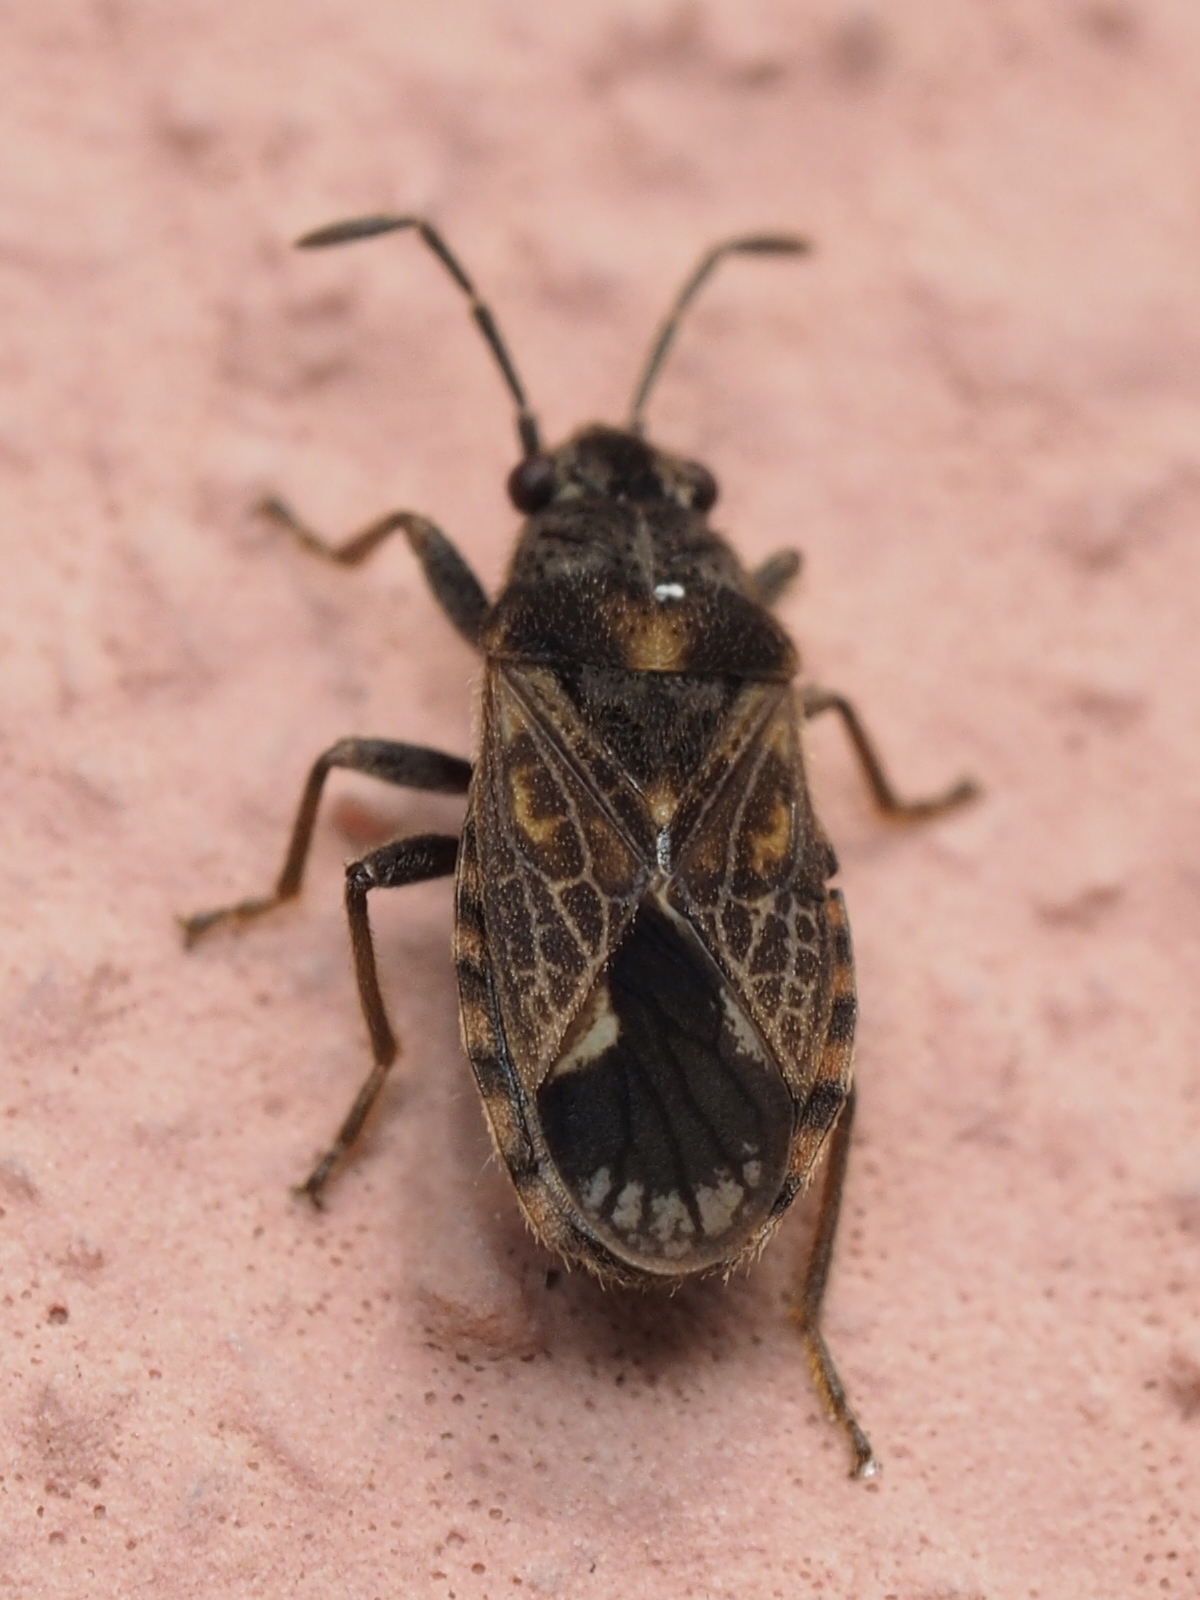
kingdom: Animalia
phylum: Arthropoda
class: Insecta
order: Hemiptera
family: Lygaeidae
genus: Lygaeosoma
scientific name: Lygaeosoma sardeum
